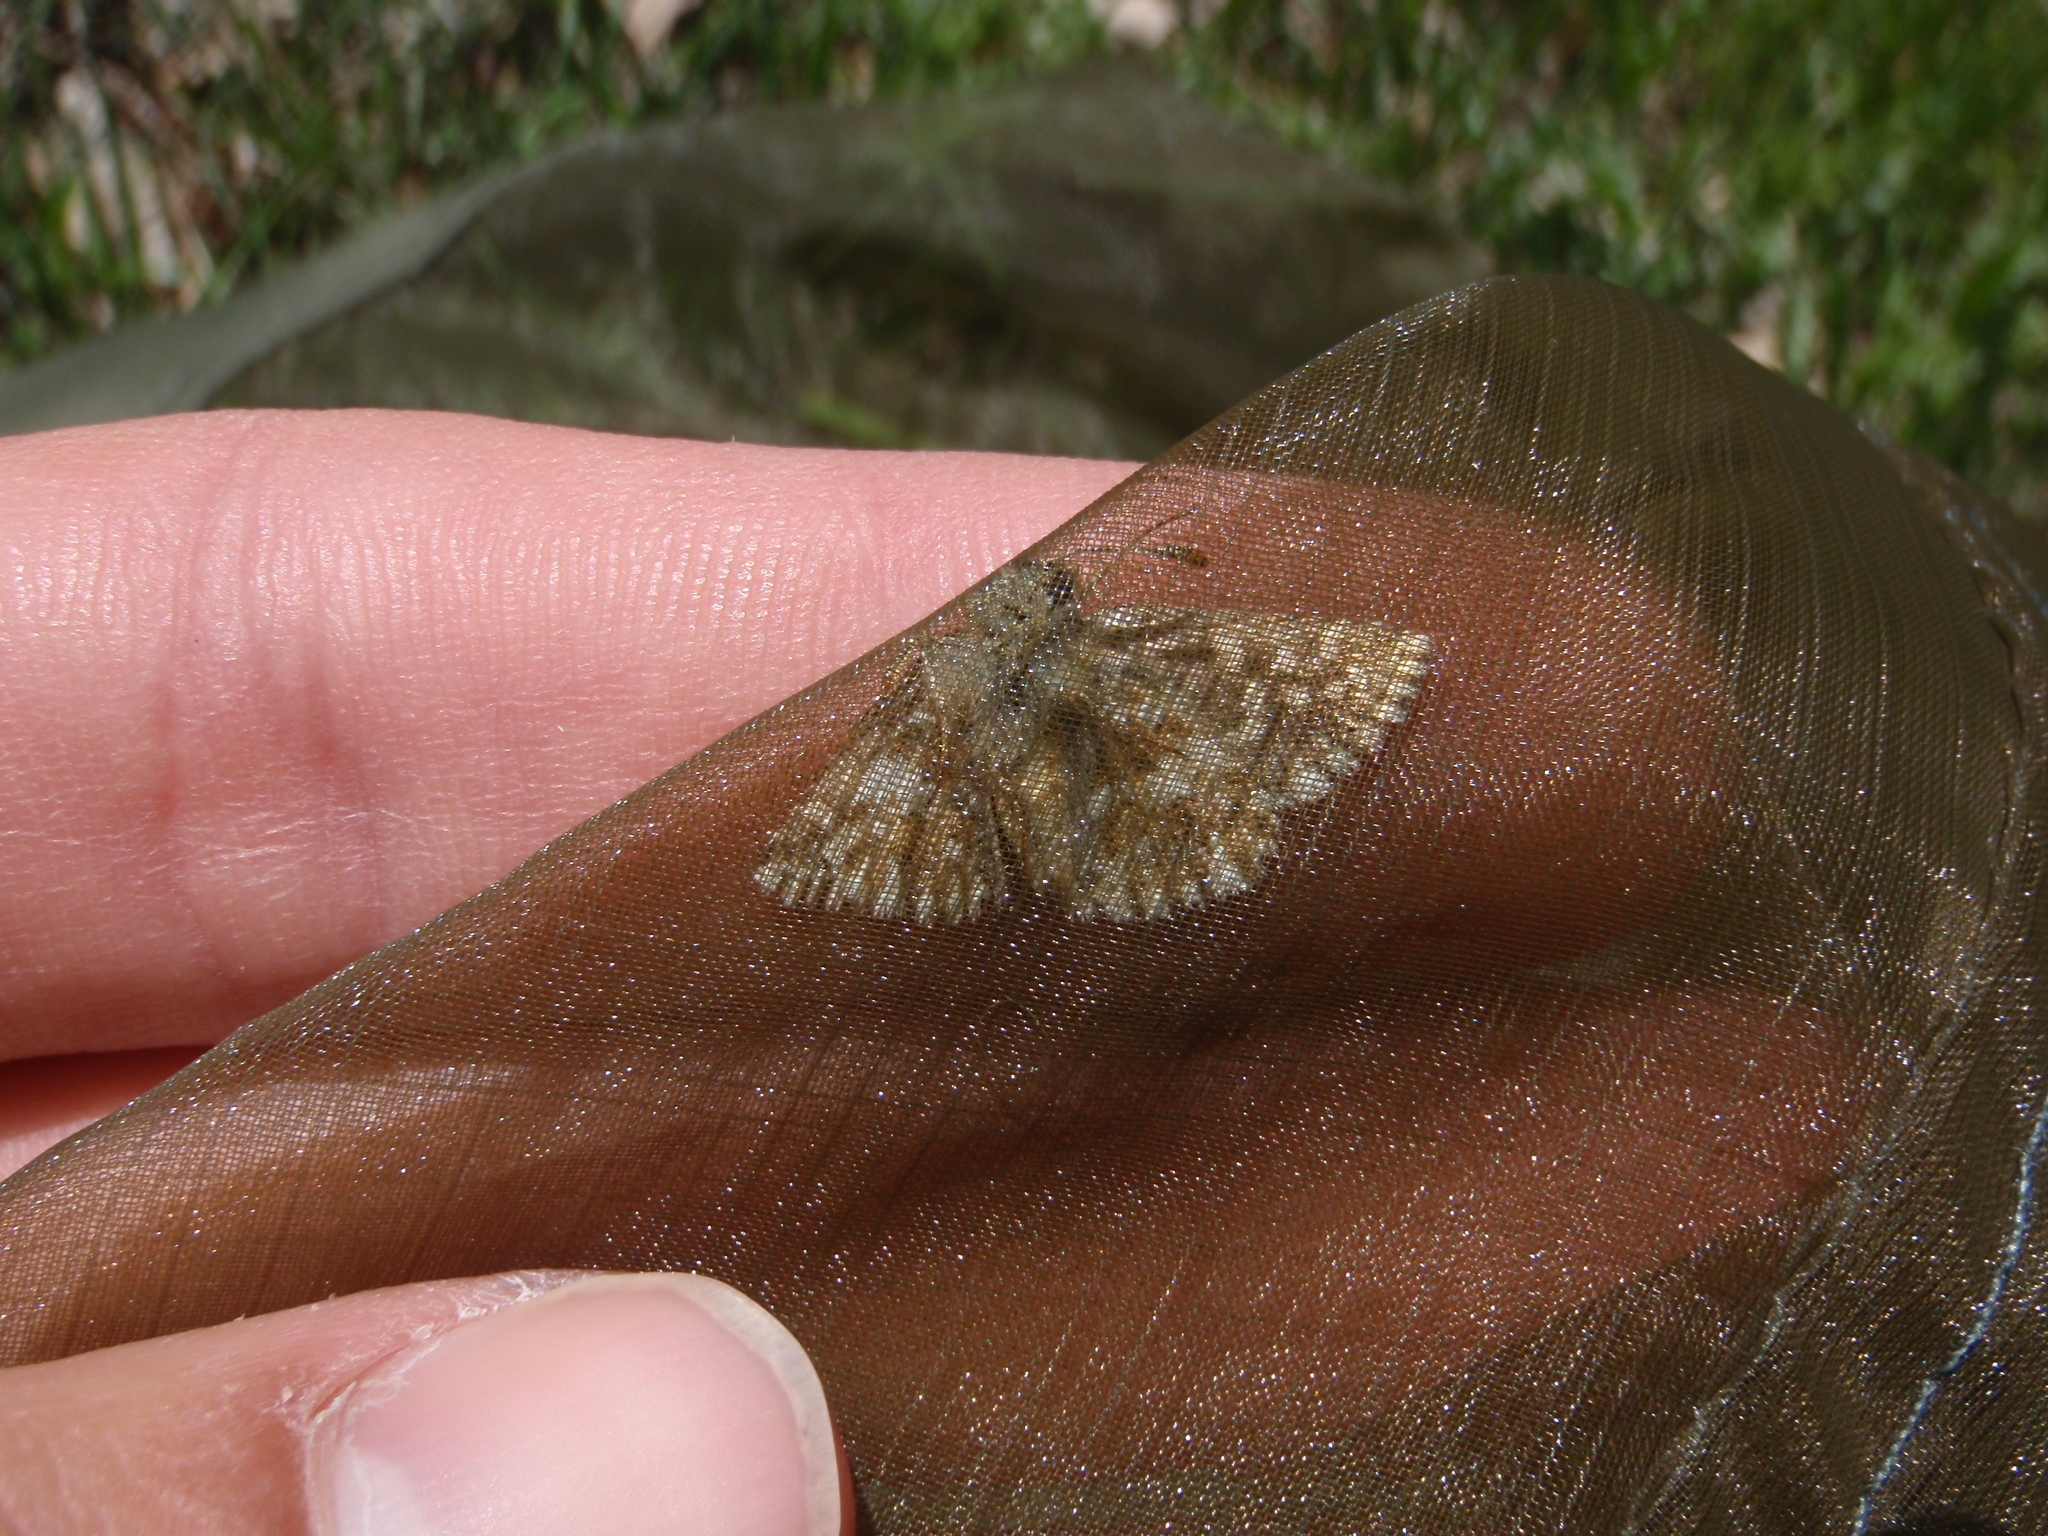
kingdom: Animalia
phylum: Arthropoda
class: Insecta
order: Lepidoptera
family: Hesperiidae
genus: Pyrgus
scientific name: Pyrgus malvoides
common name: Southern grizzled skipper
